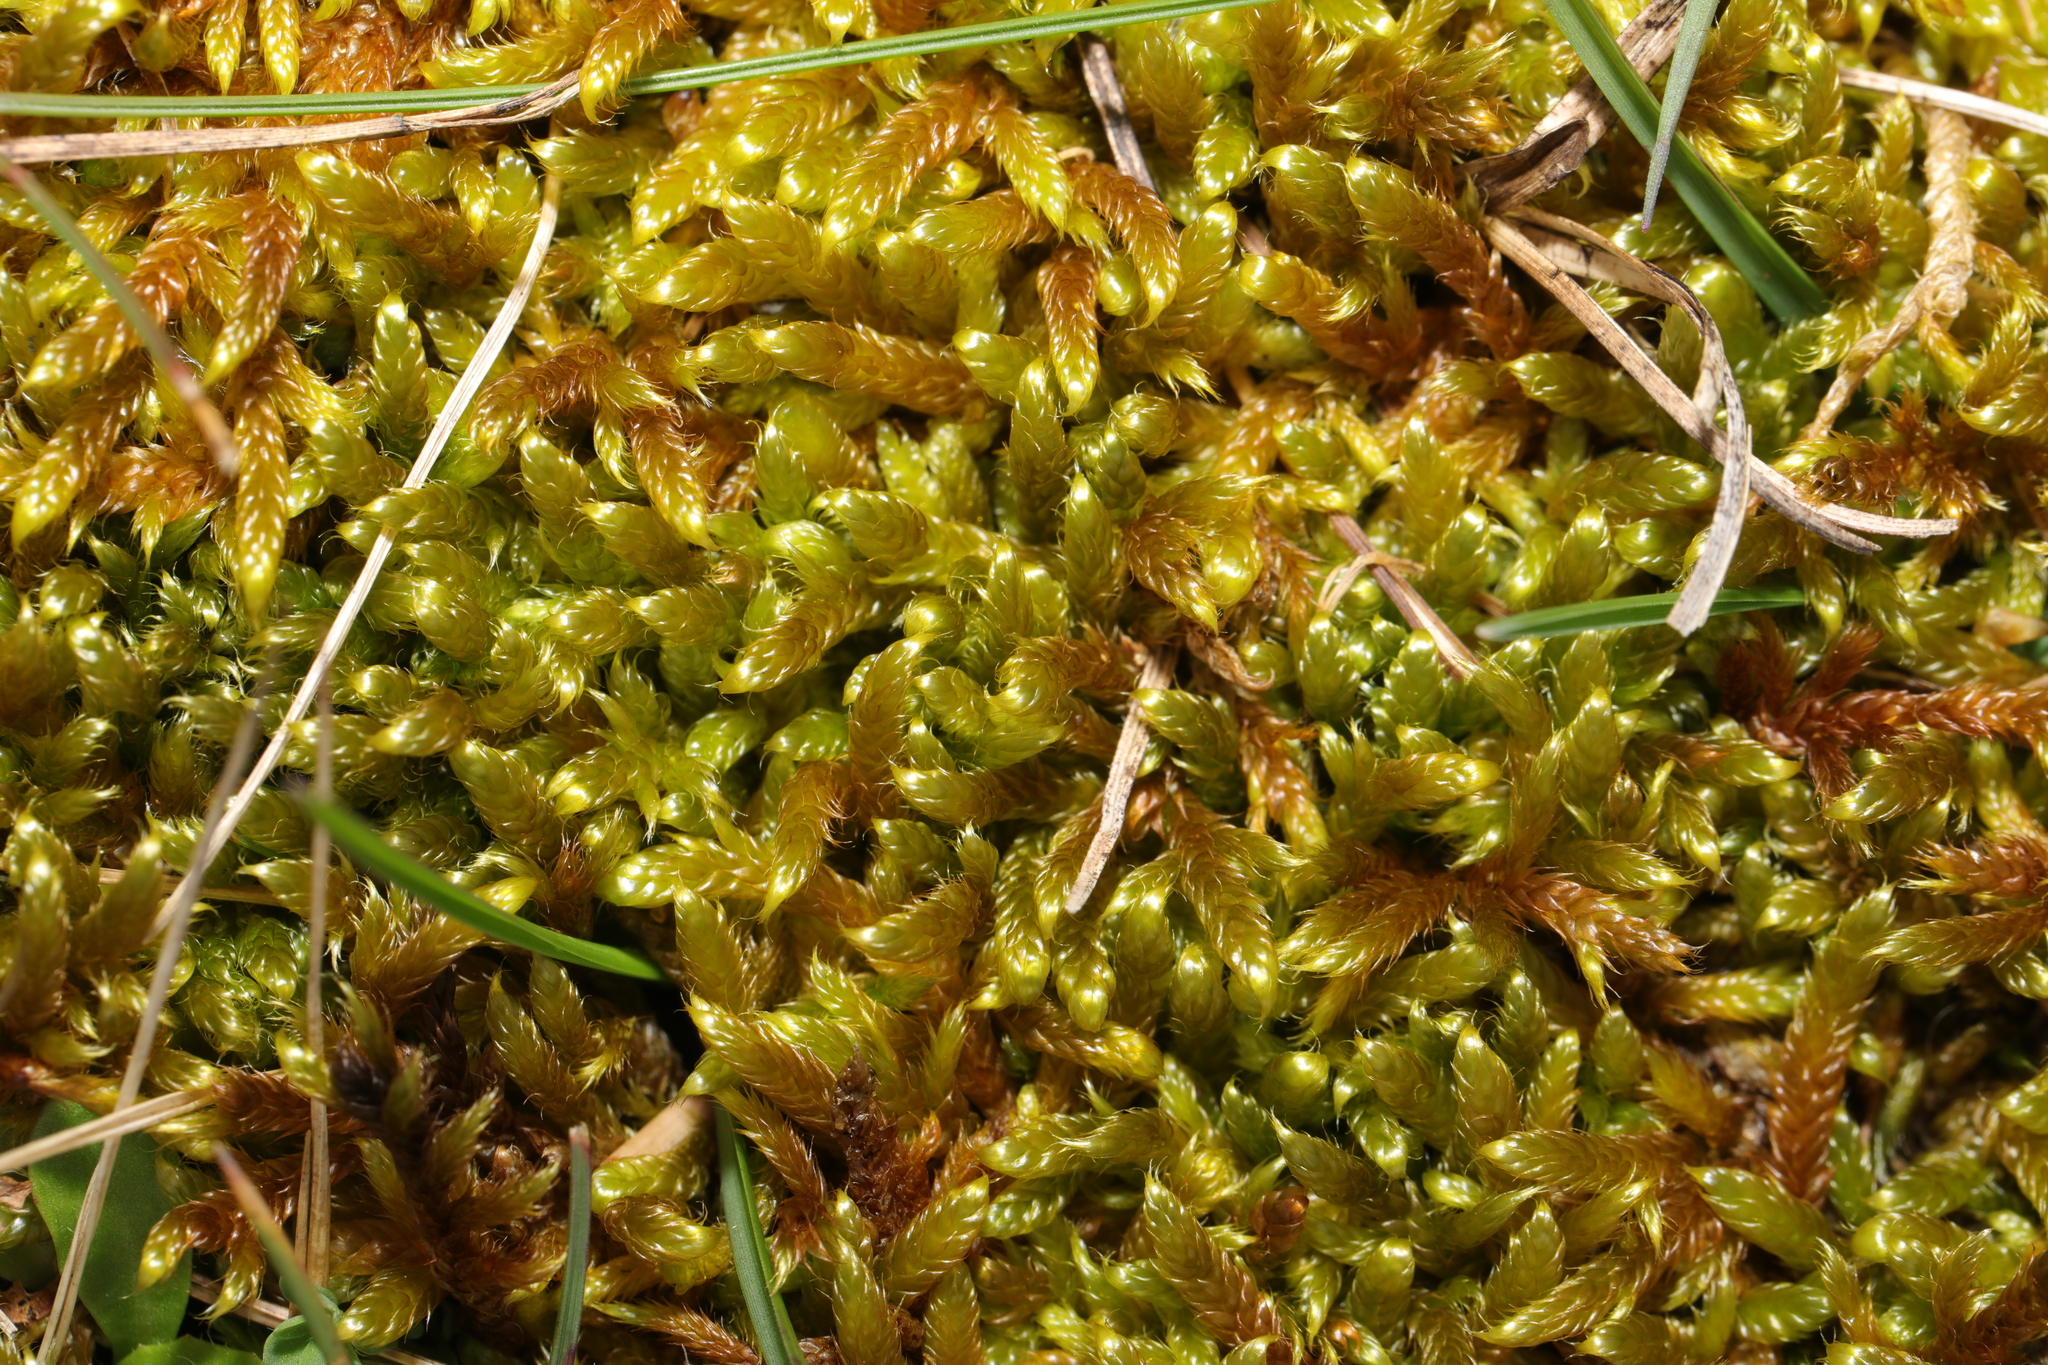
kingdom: Plantae
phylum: Bryophyta
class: Bryopsida
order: Hypnales
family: Hypnaceae
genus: Hypnum
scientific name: Hypnum cupressiforme
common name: Cypress-leaved plait-moss
